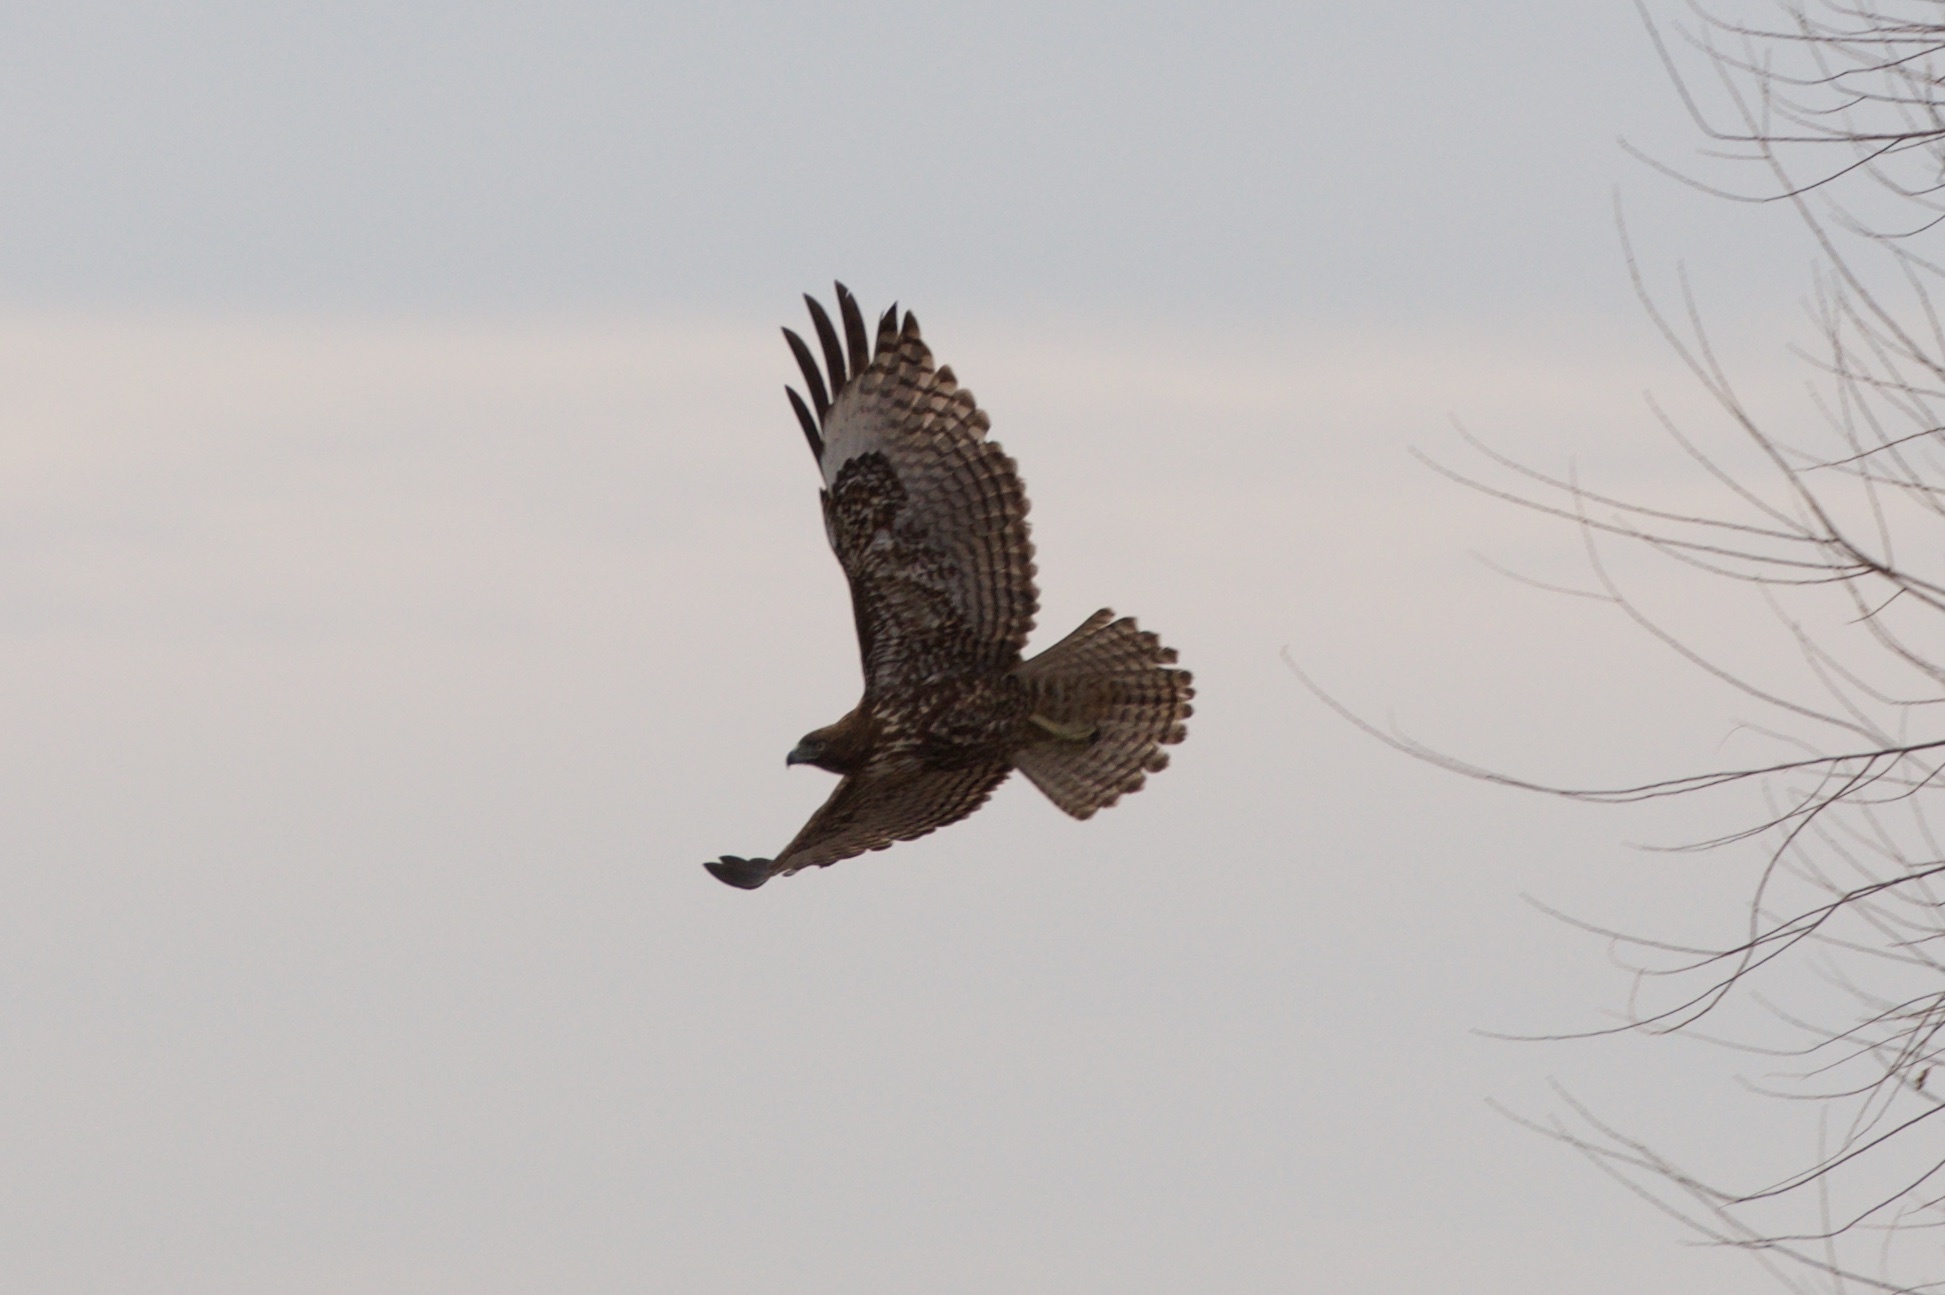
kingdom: Animalia
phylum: Chordata
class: Aves
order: Accipitriformes
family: Accipitridae
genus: Buteo
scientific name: Buteo jamaicensis
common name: Red-tailed hawk
